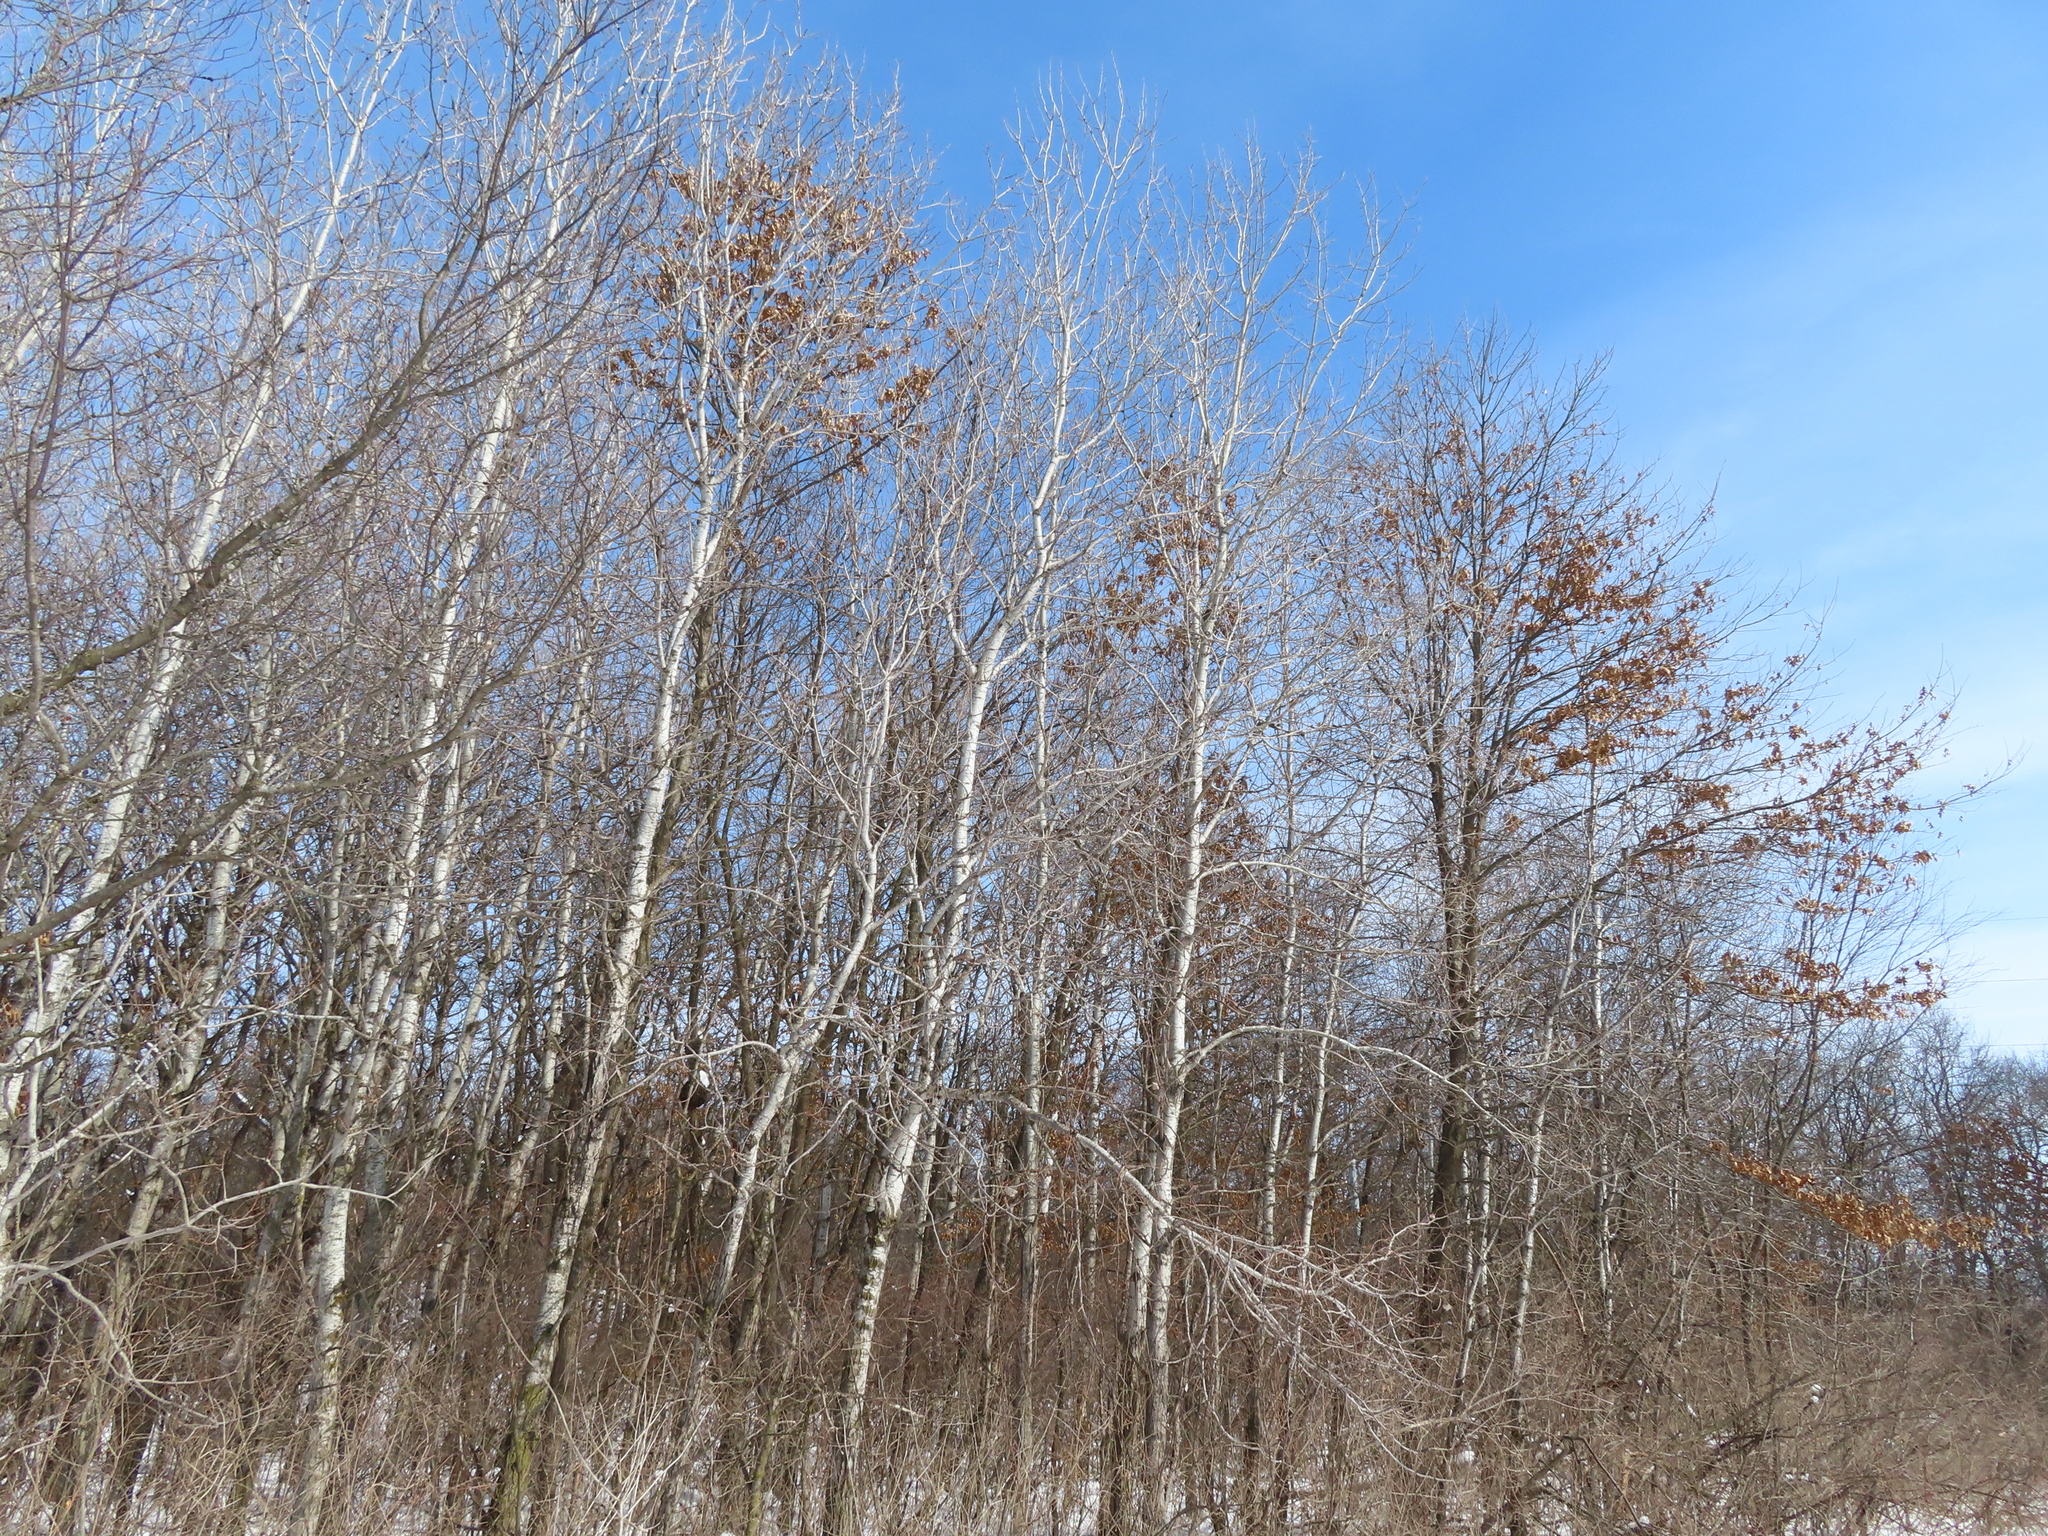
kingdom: Plantae
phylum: Tracheophyta
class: Magnoliopsida
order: Malpighiales
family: Salicaceae
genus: Populus
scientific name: Populus tremuloides
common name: Quaking aspen
